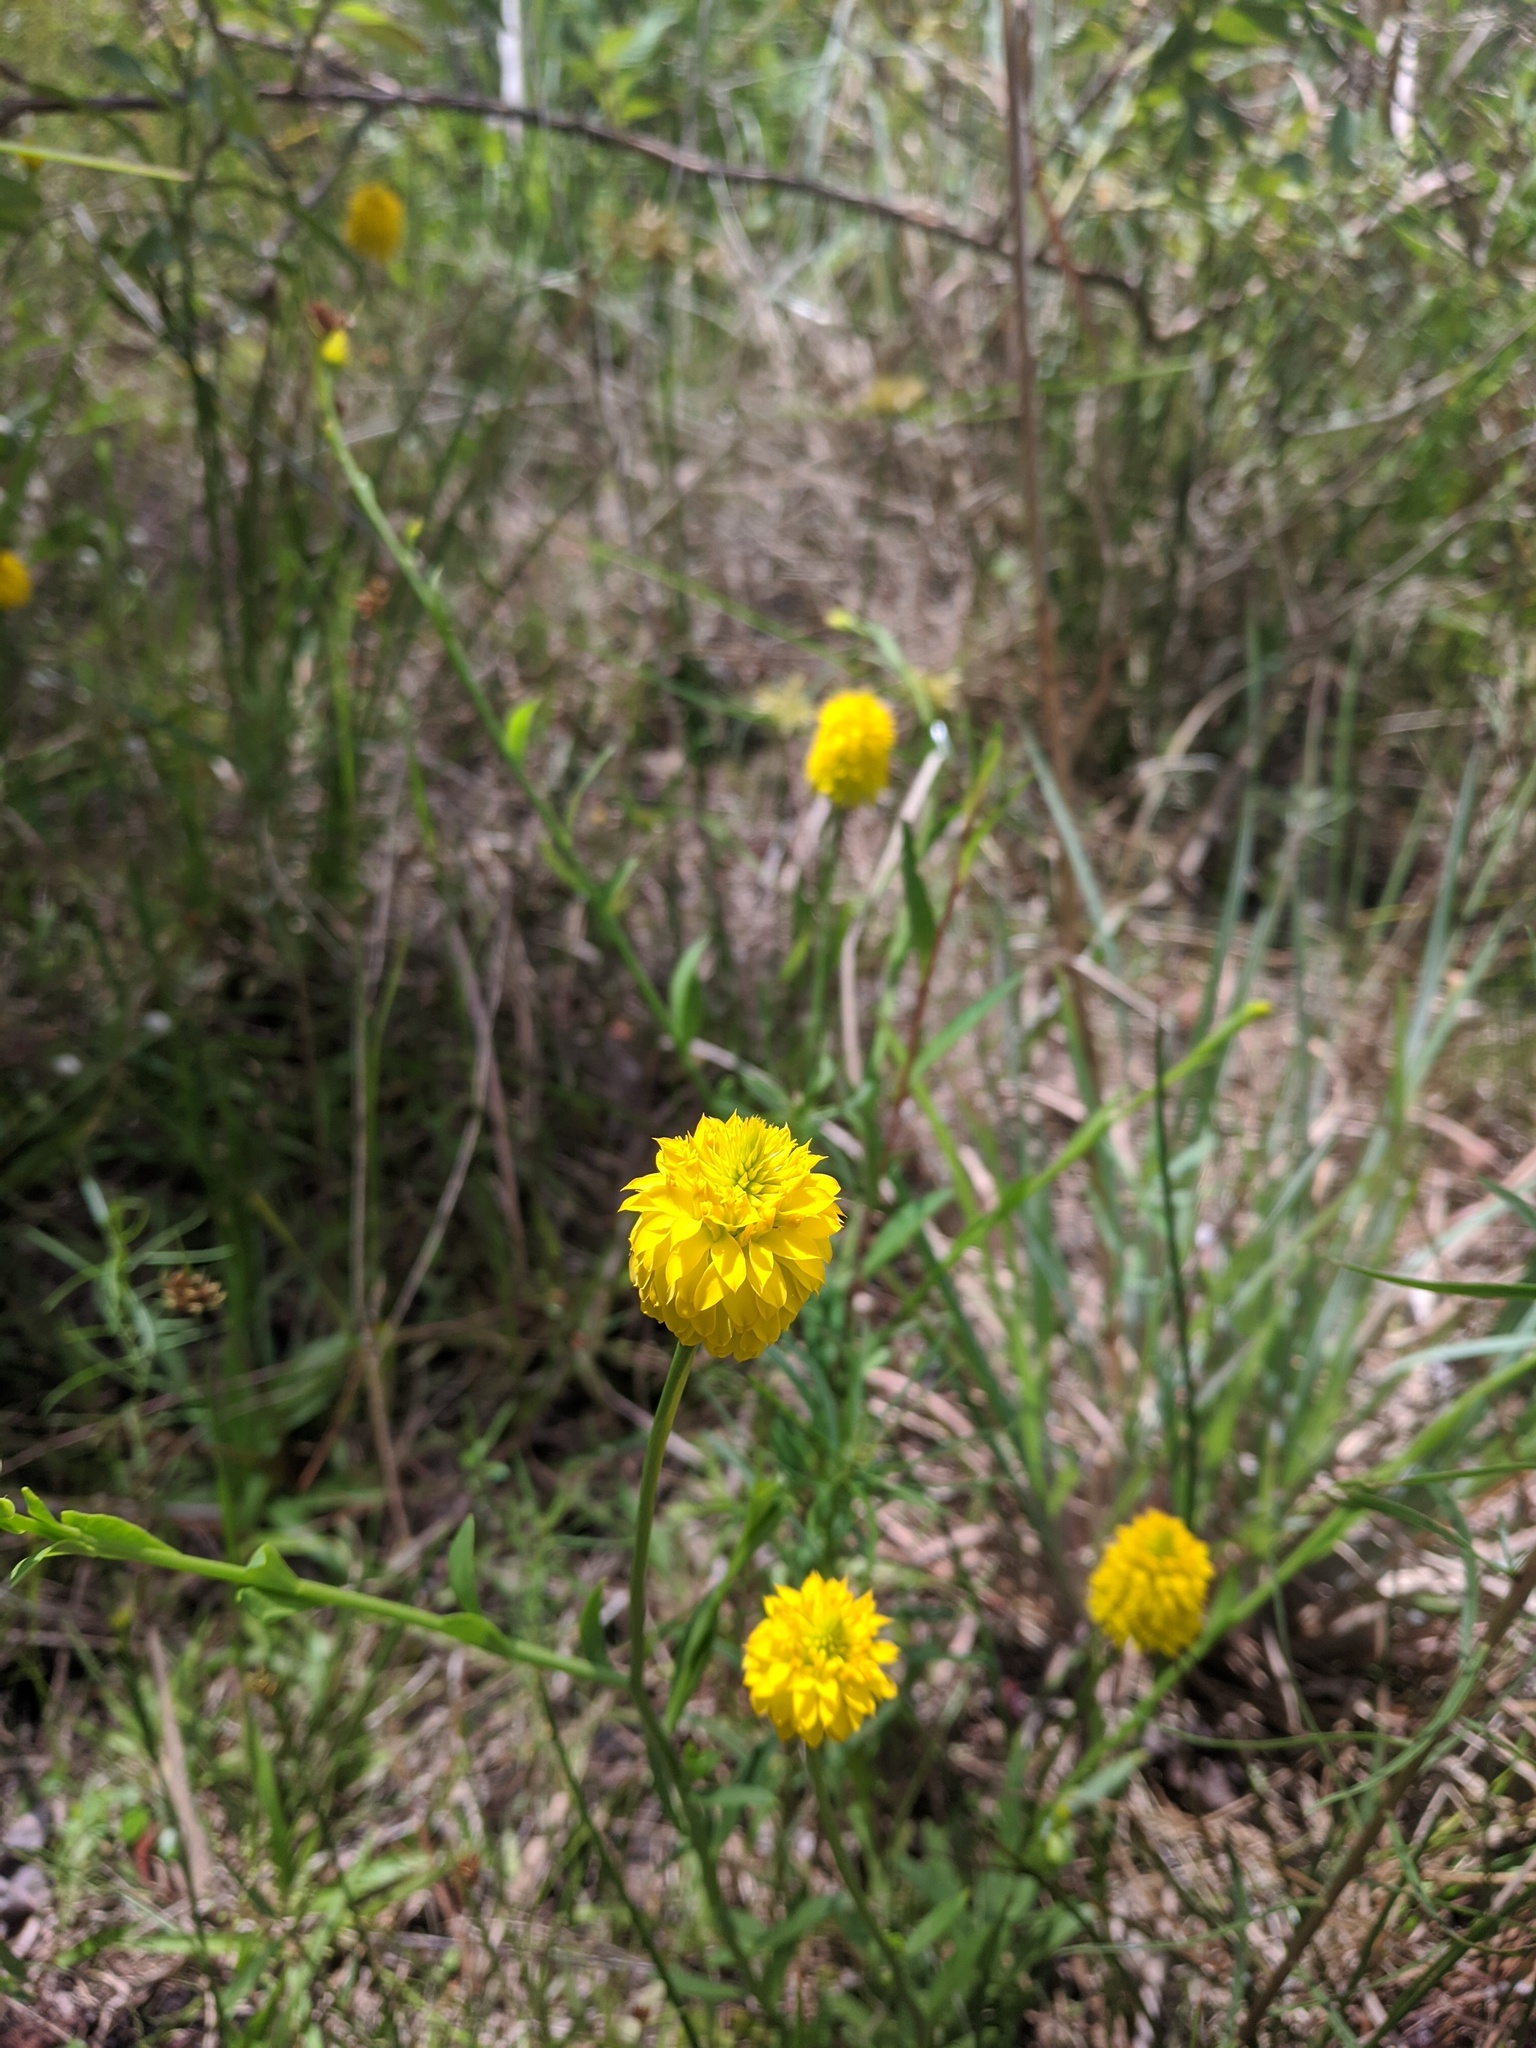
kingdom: Plantae
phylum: Tracheophyta
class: Magnoliopsida
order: Fabales
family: Polygalaceae
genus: Polygala
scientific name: Polygala rugelii
